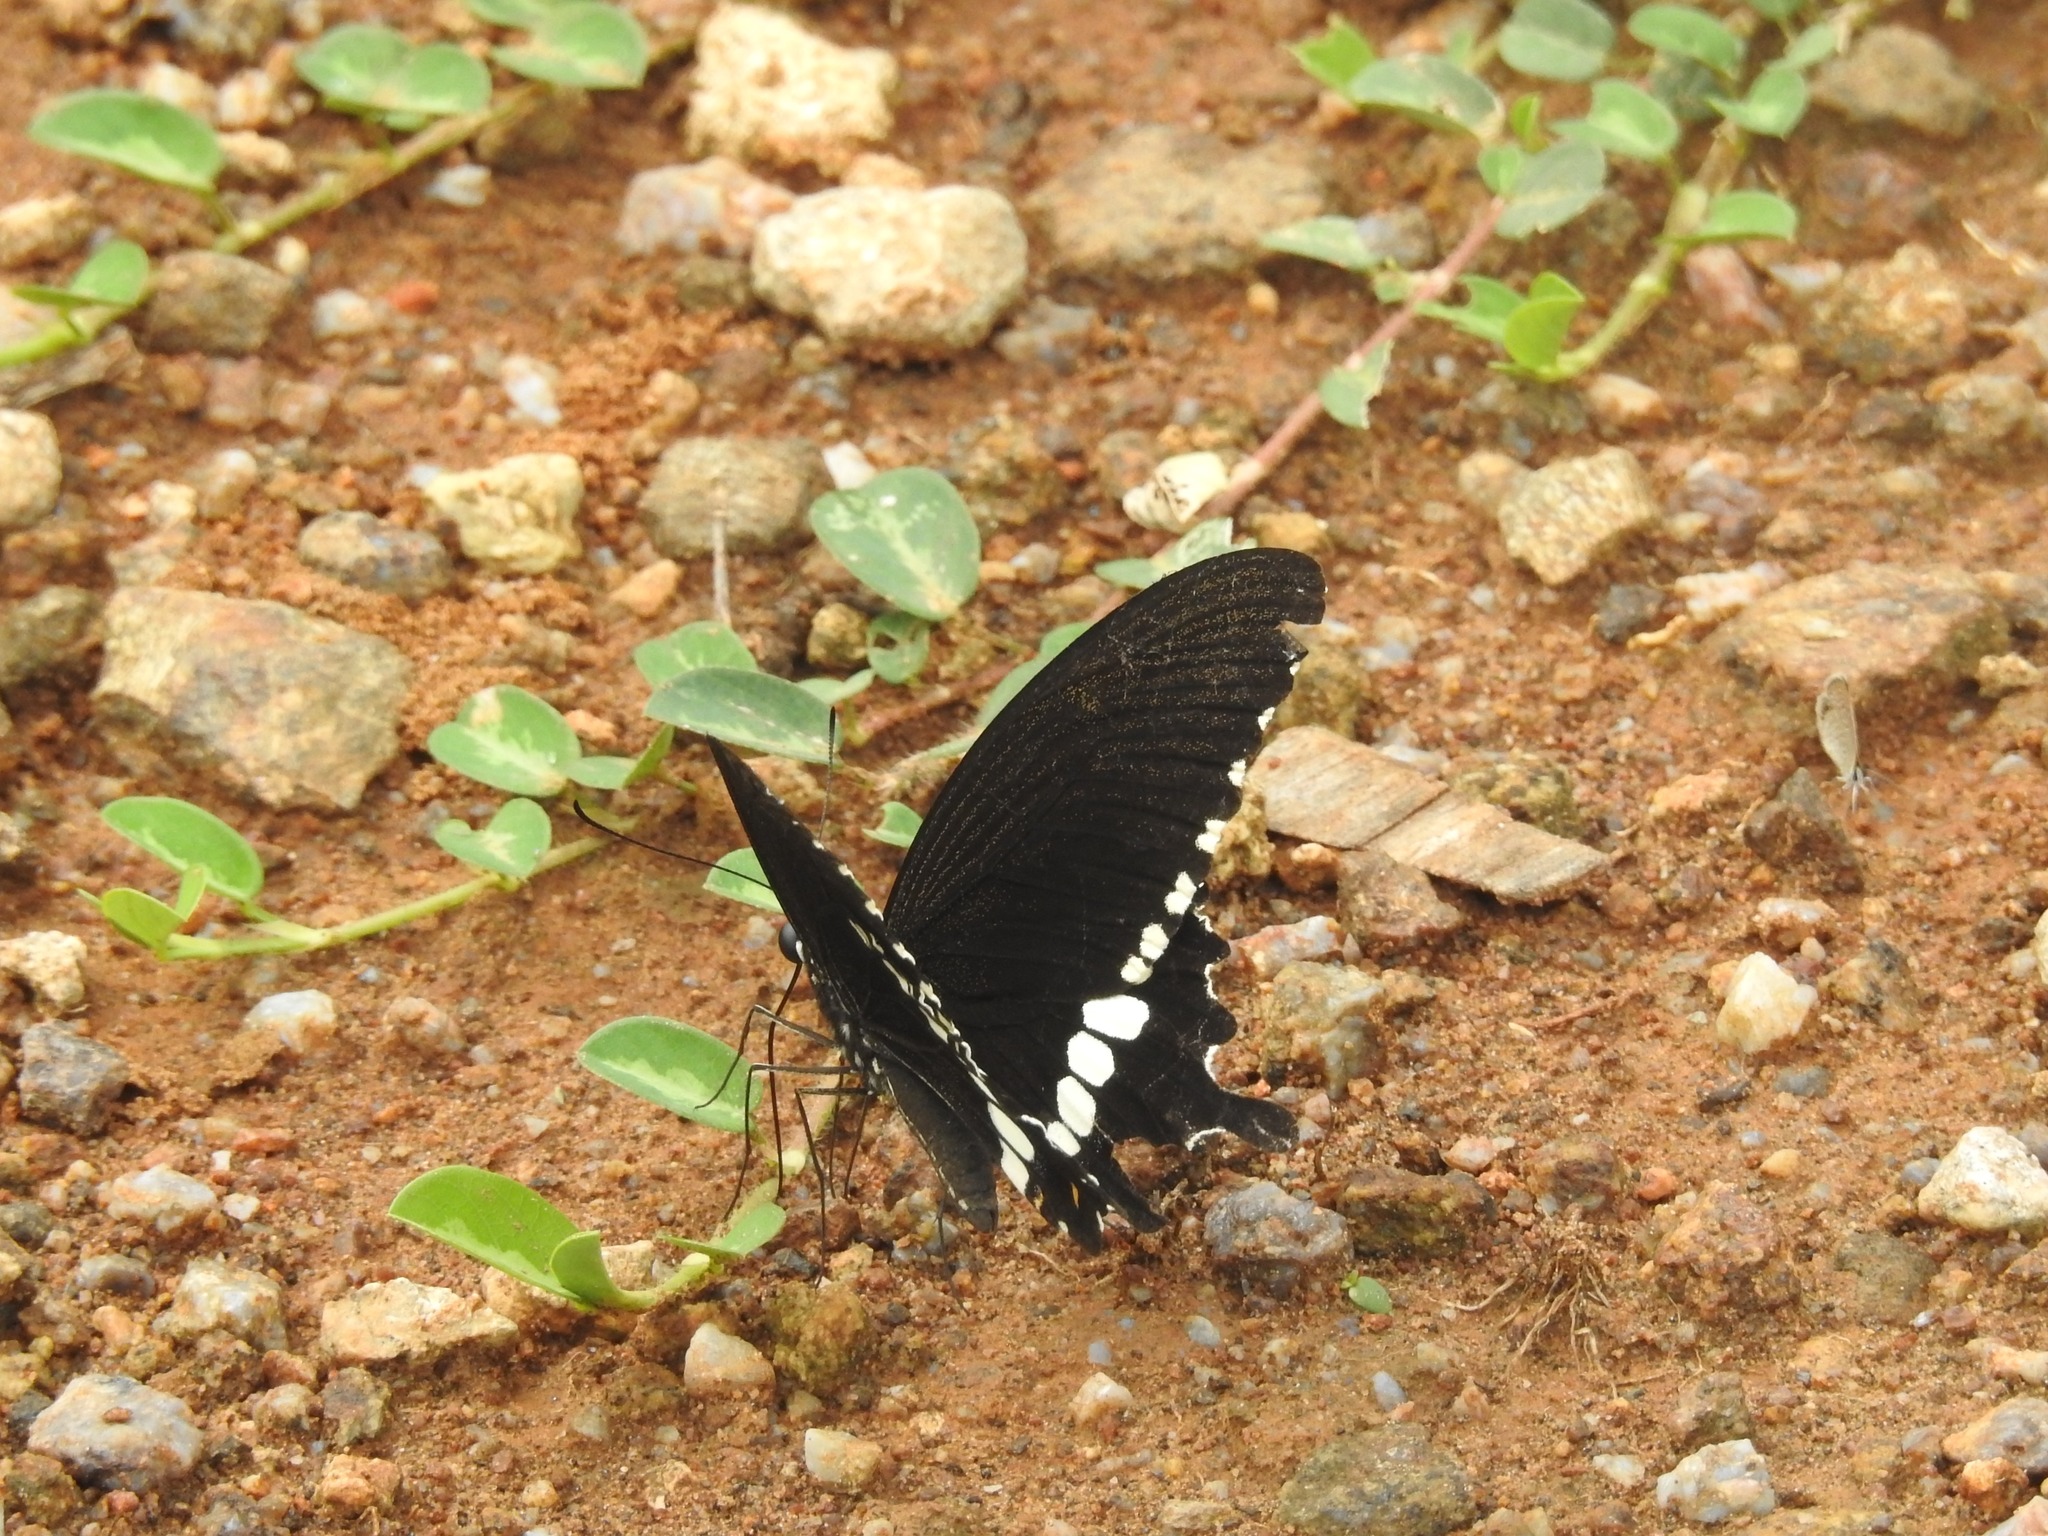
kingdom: Animalia
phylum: Arthropoda
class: Insecta
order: Lepidoptera
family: Papilionidae
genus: Papilio
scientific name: Papilio polytes
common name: Common mormon
